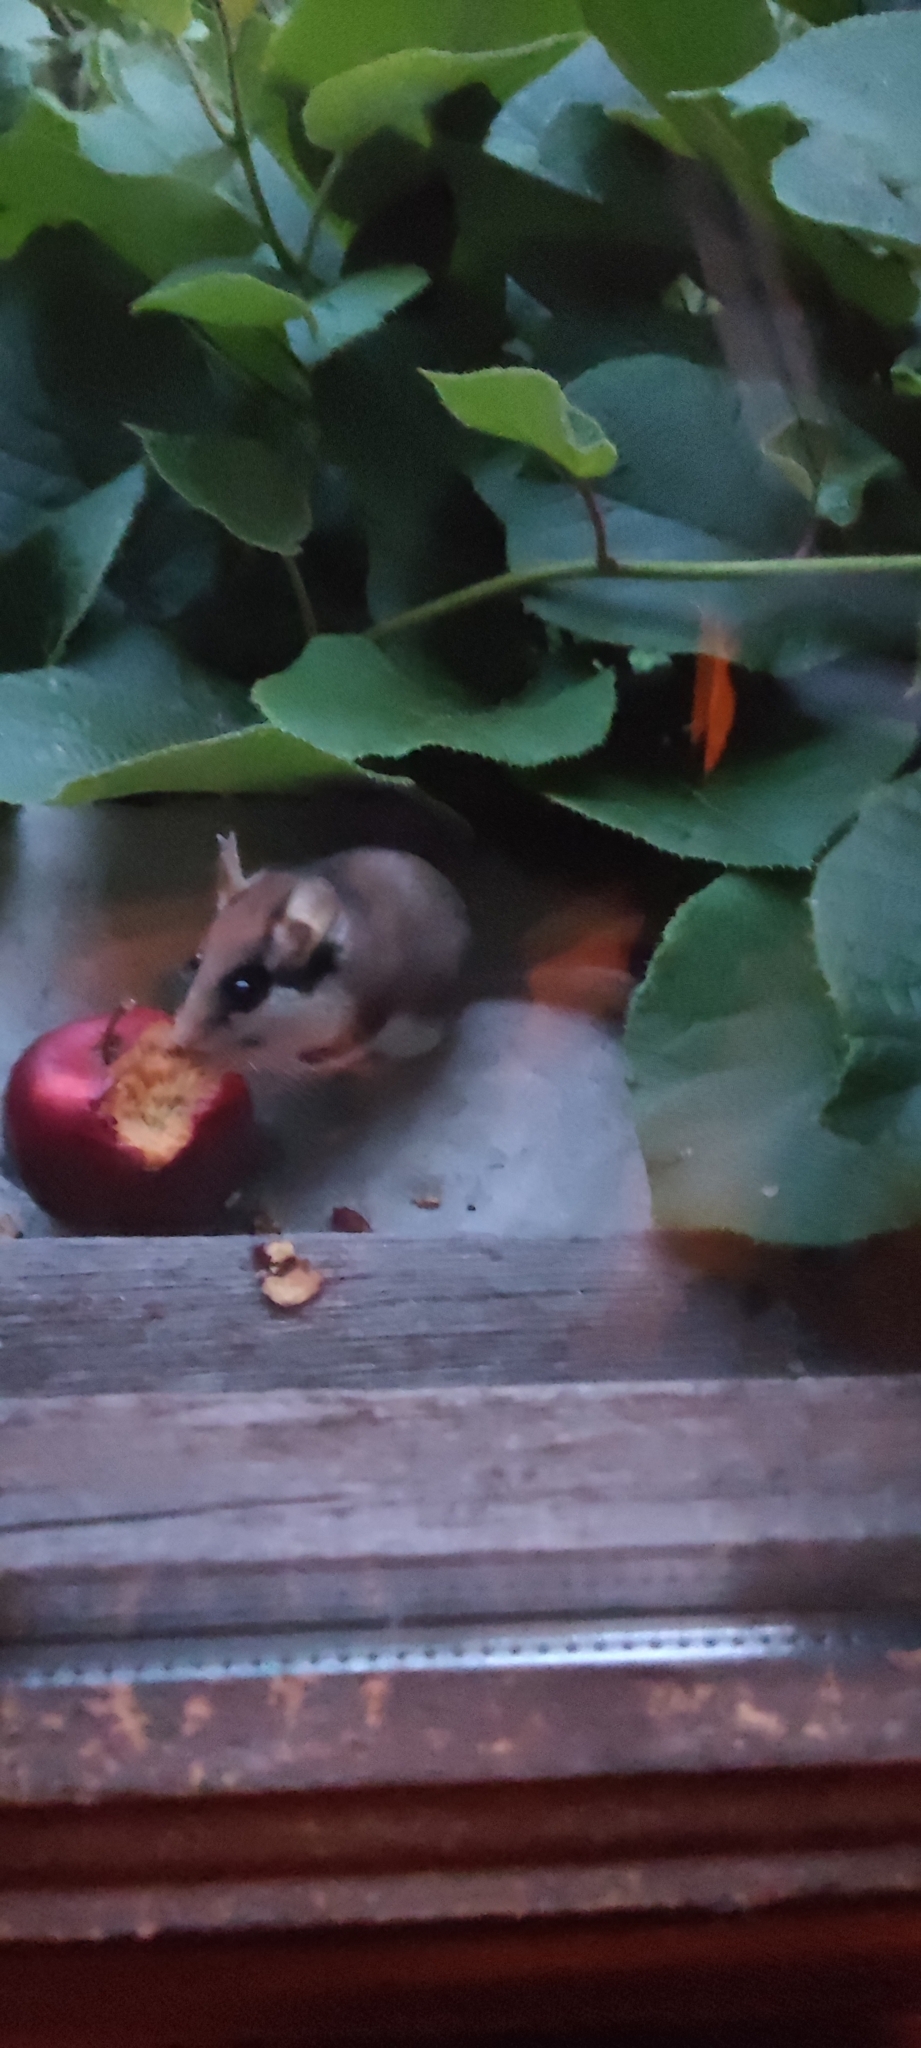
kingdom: Animalia
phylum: Chordata
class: Mammalia
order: Rodentia
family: Gliridae
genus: Eliomys
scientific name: Eliomys quercinus
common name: Garden dormouse
